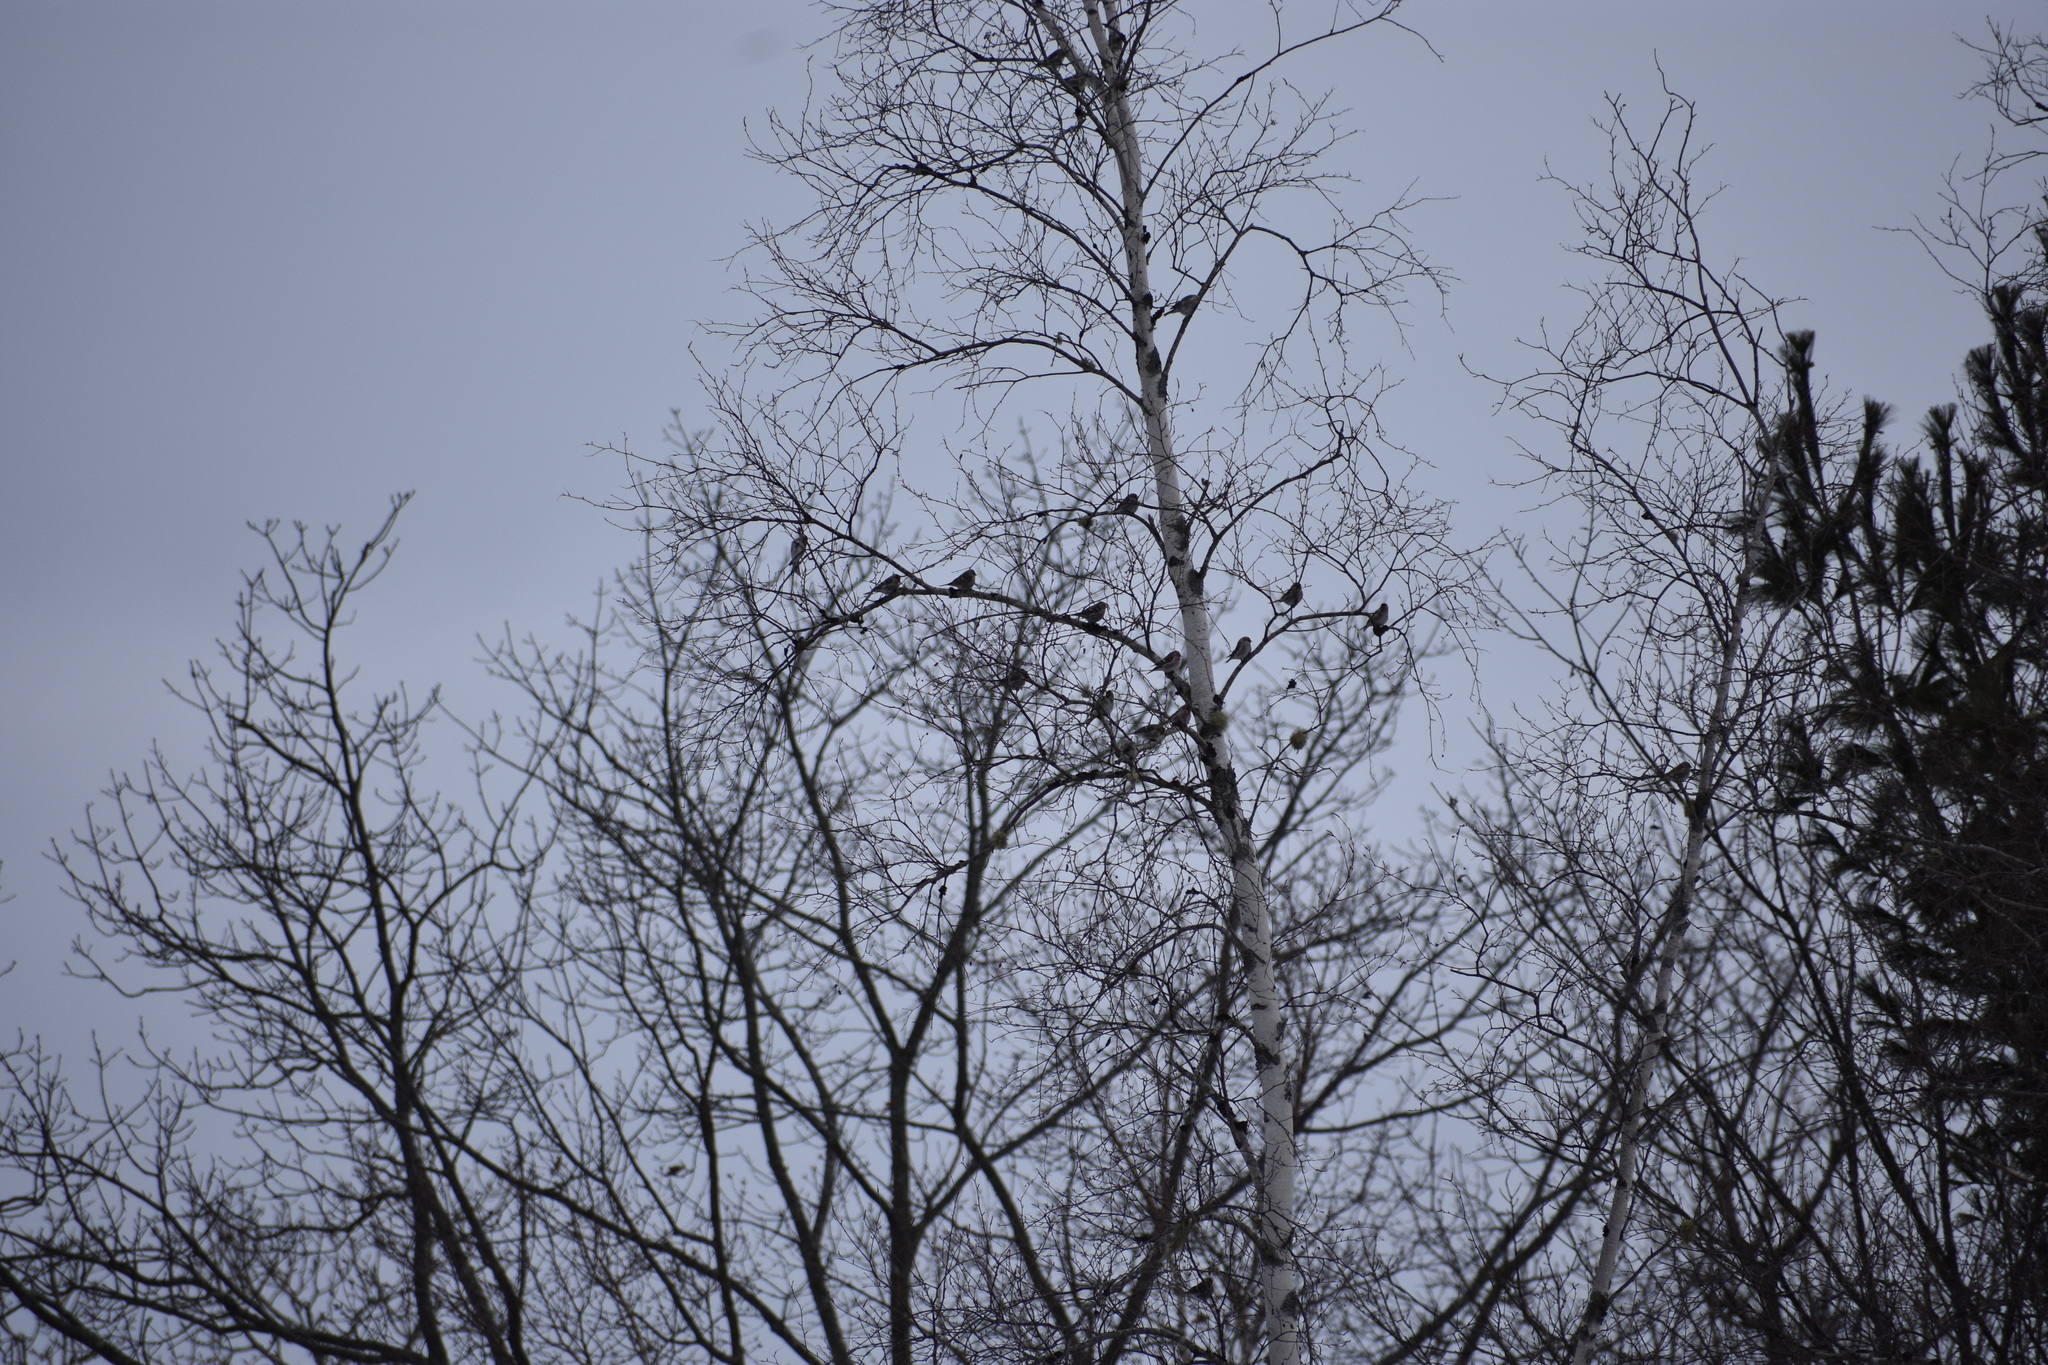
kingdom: Animalia
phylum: Chordata
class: Aves
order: Passeriformes
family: Fringillidae
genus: Acanthis
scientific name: Acanthis flammea
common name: Common redpoll
